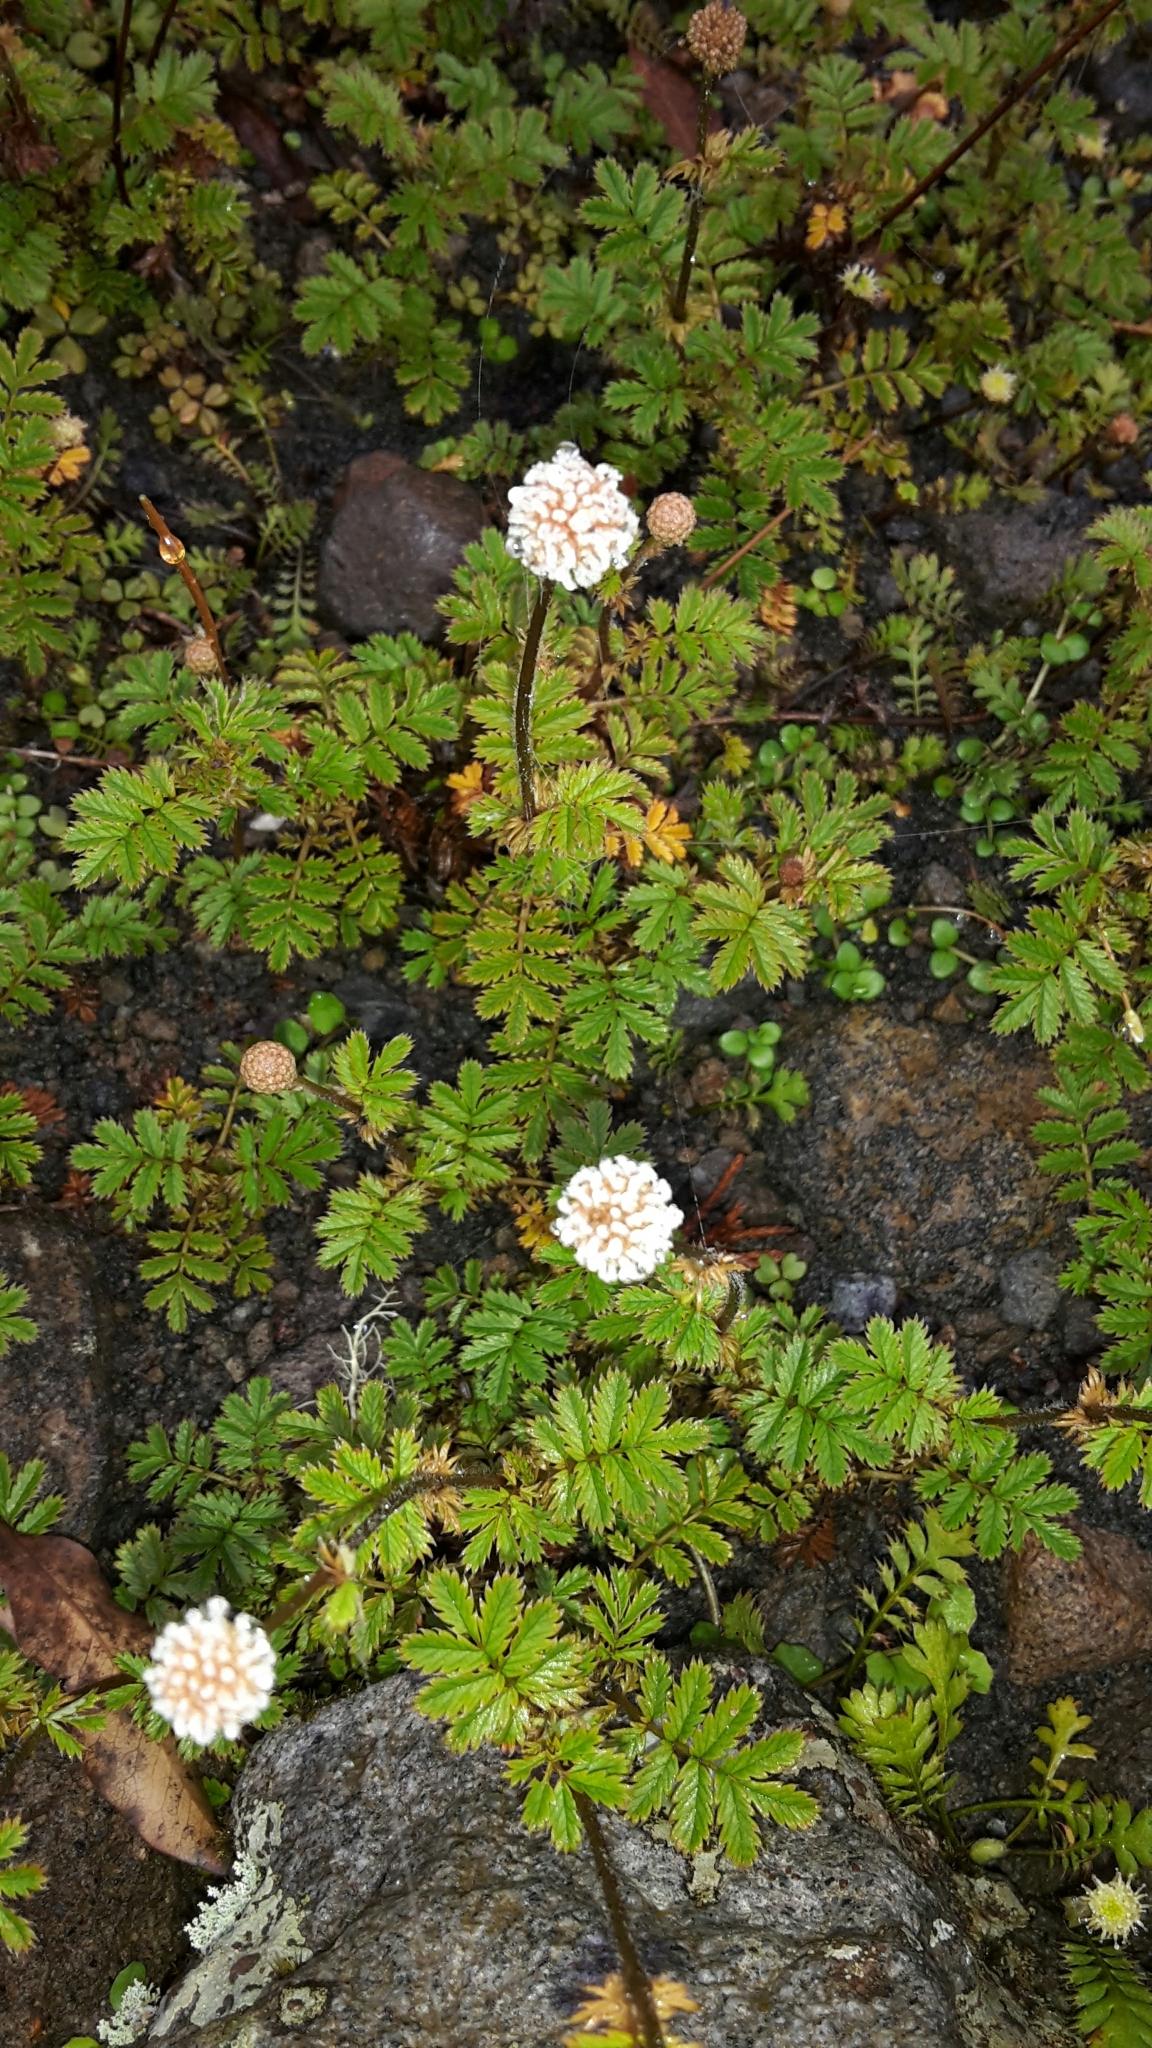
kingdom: Plantae
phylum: Tracheophyta
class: Magnoliopsida
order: Rosales
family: Rosaceae
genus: Acaena
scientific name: Acaena anserinifolia
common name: Bronze pirri-pirri-bur
